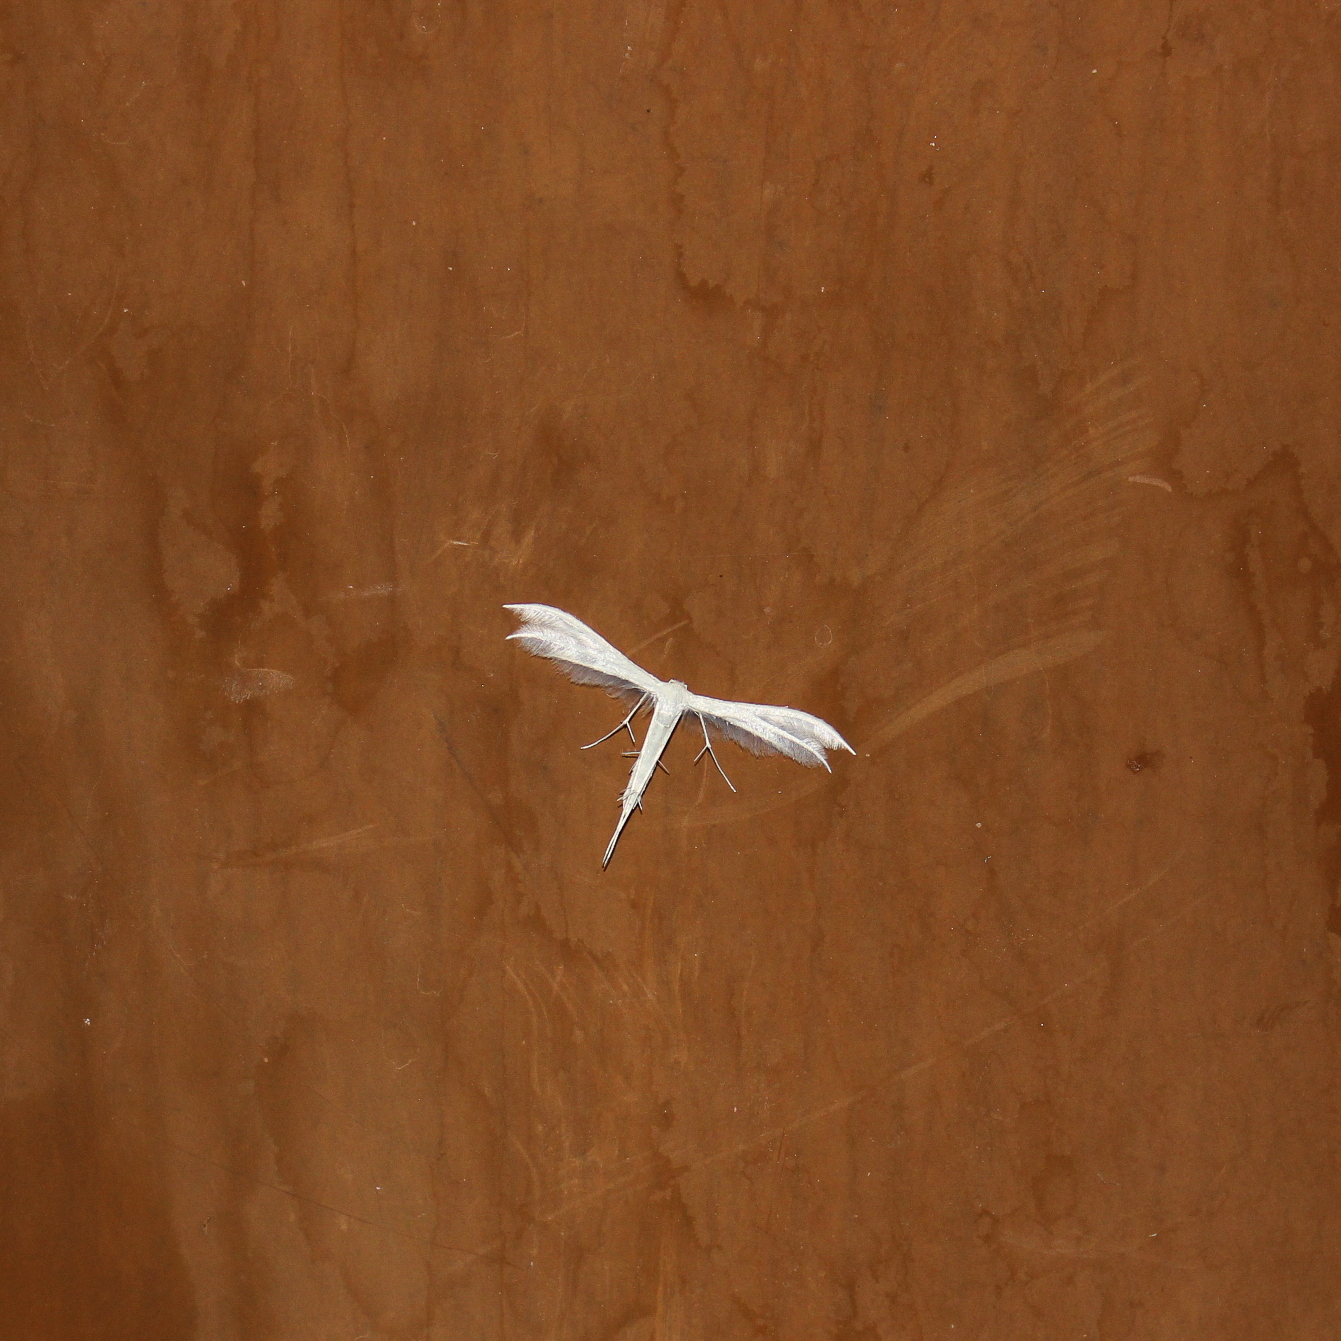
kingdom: Animalia
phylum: Arthropoda
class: Insecta
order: Lepidoptera
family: Pterophoridae
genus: Pterophorus
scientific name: Pterophorus pentadactyla
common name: White plume moth
